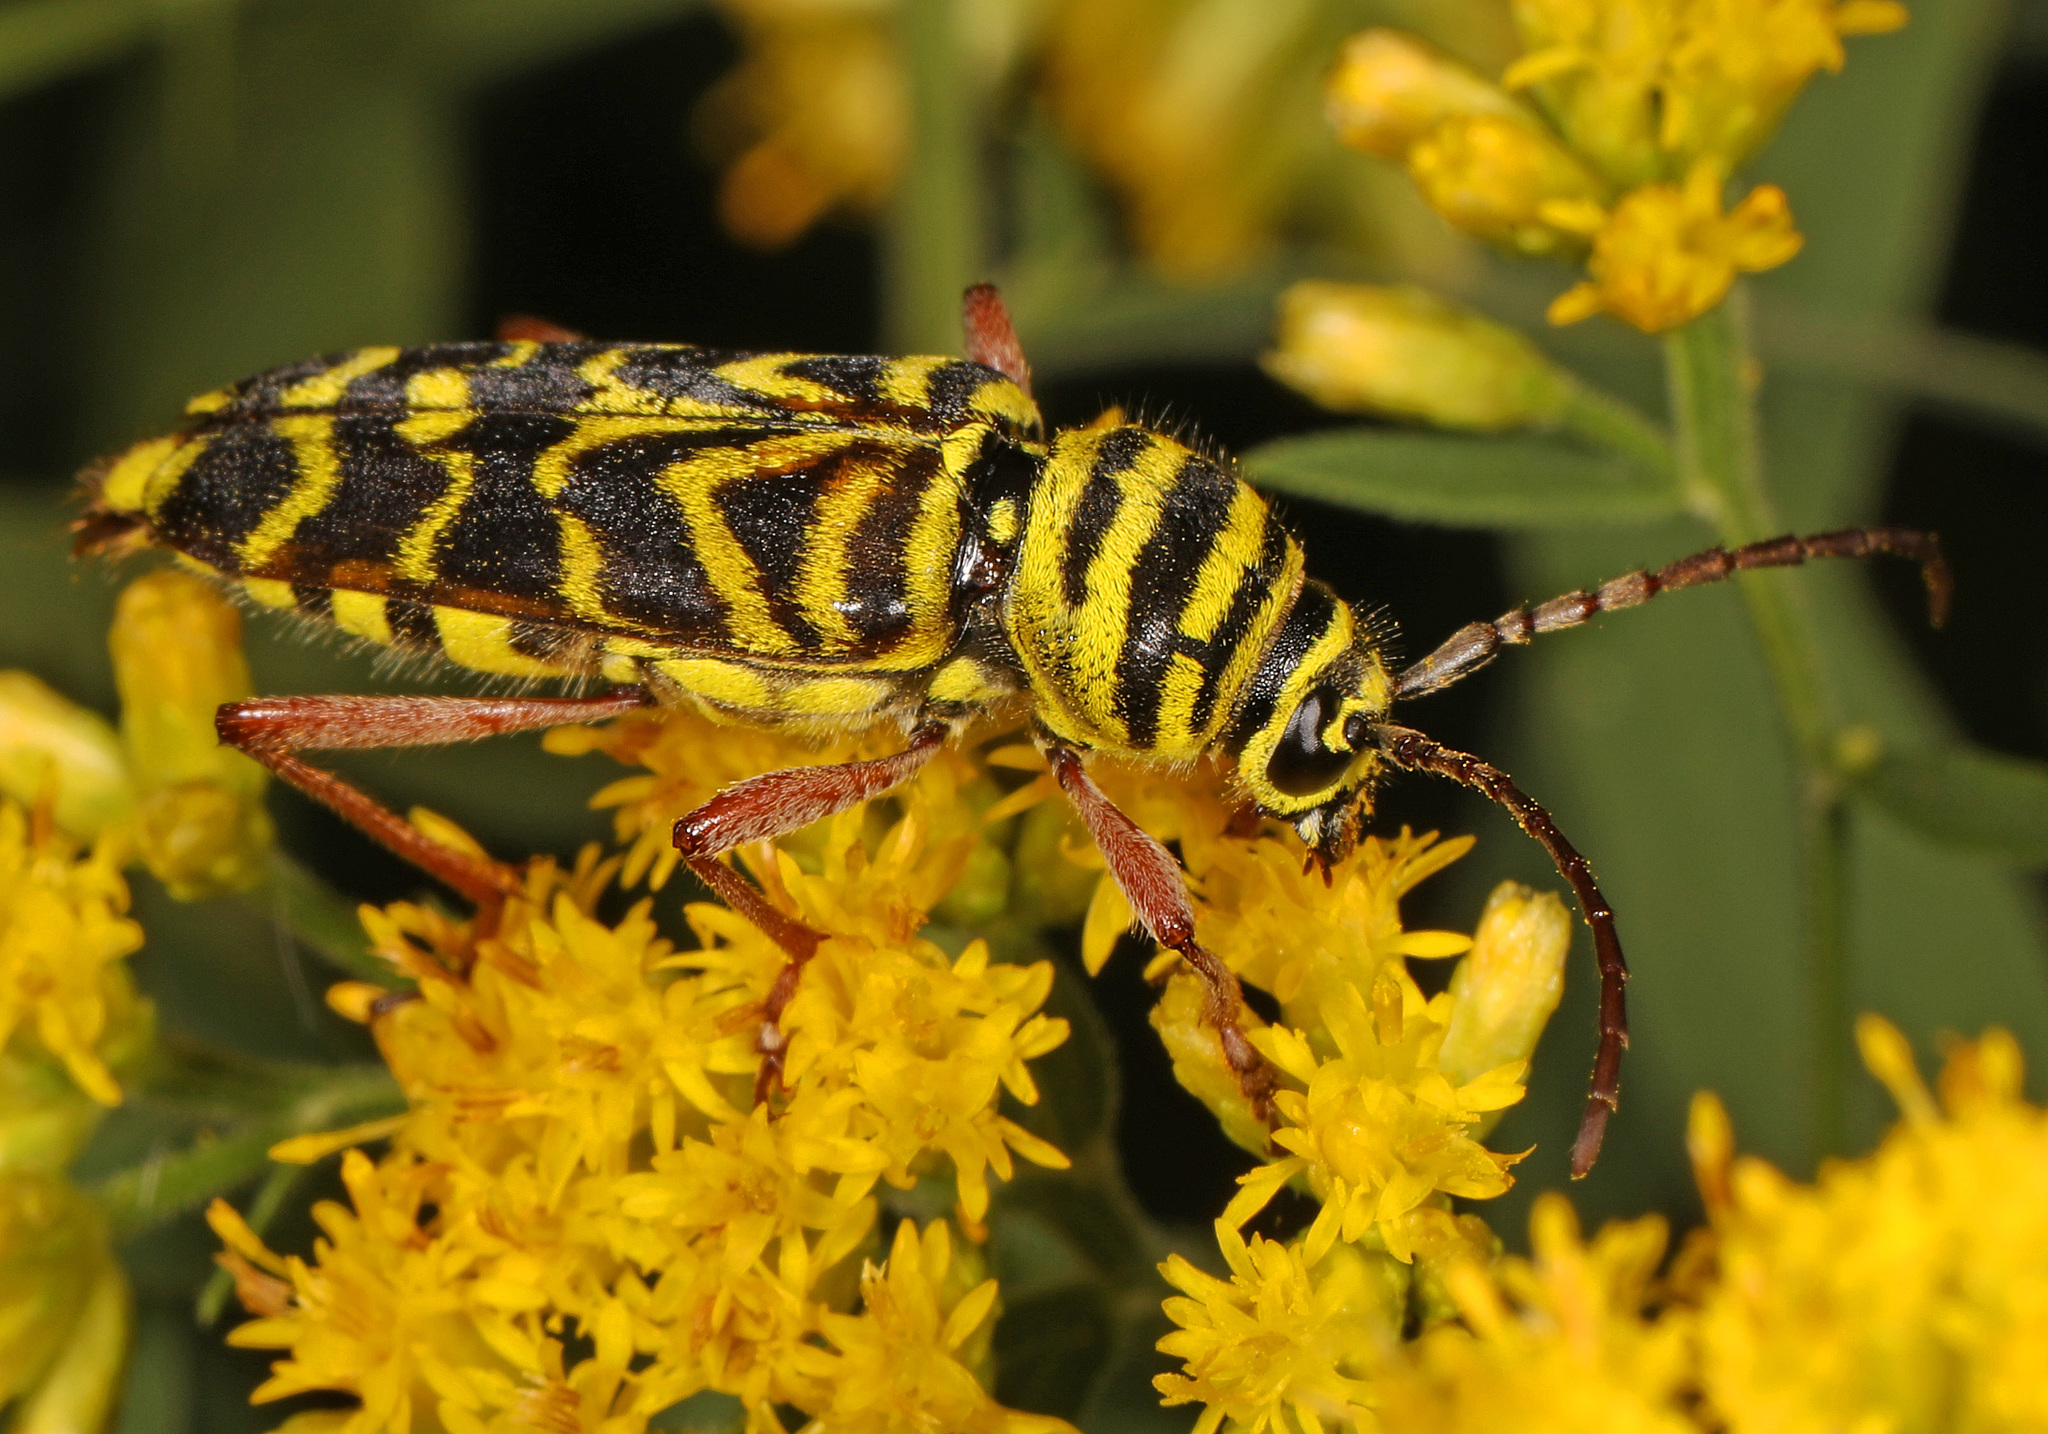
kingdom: Animalia
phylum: Arthropoda
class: Insecta
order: Coleoptera
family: Cerambycidae
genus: Megacyllene
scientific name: Megacyllene robiniae
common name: Locust borer
